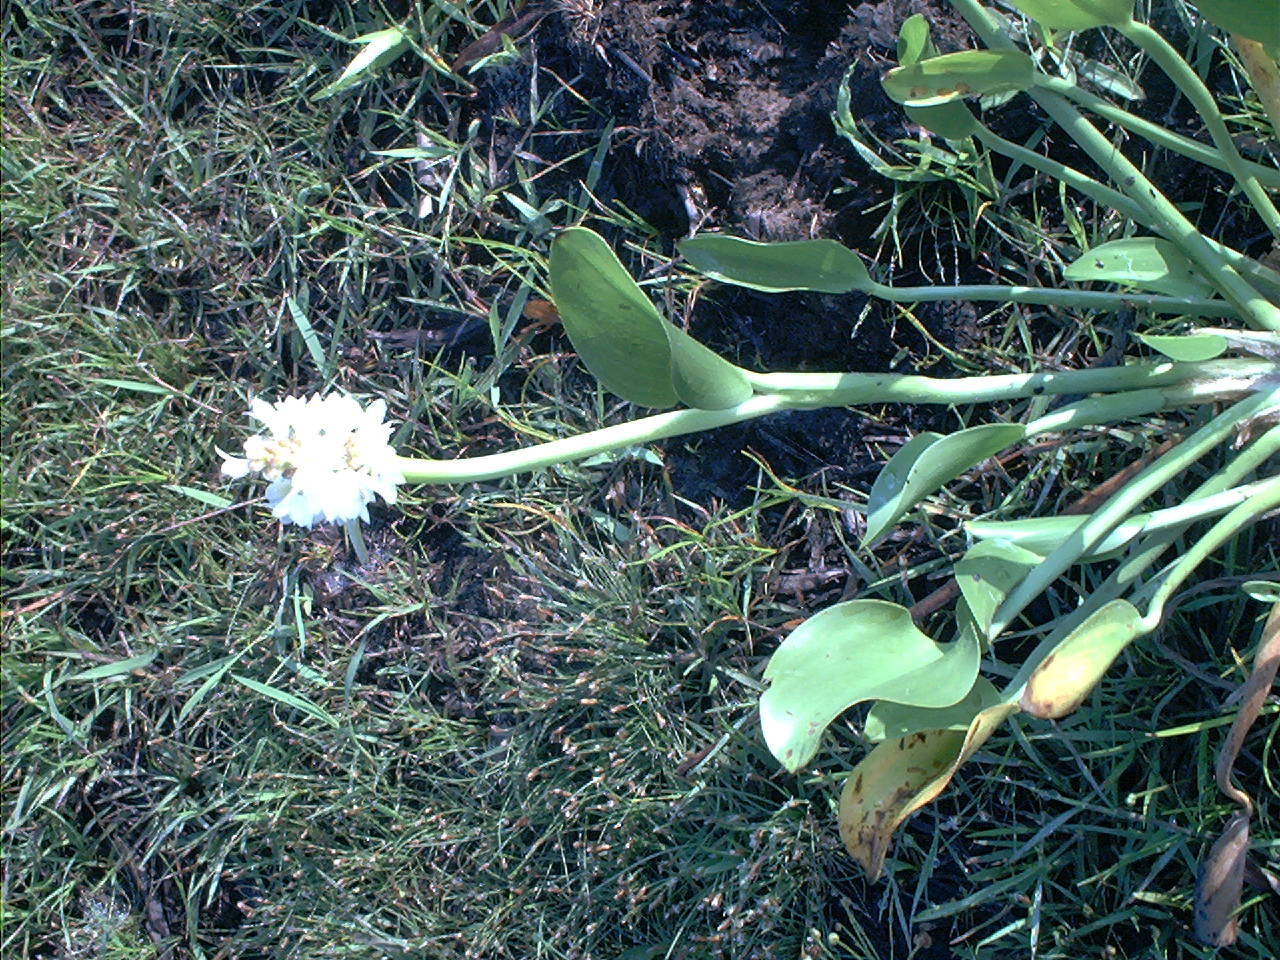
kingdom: Plantae
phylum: Tracheophyta
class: Liliopsida
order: Commelinales
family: Pontederiaceae
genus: Pontederia
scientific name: Pontederia ovalis
